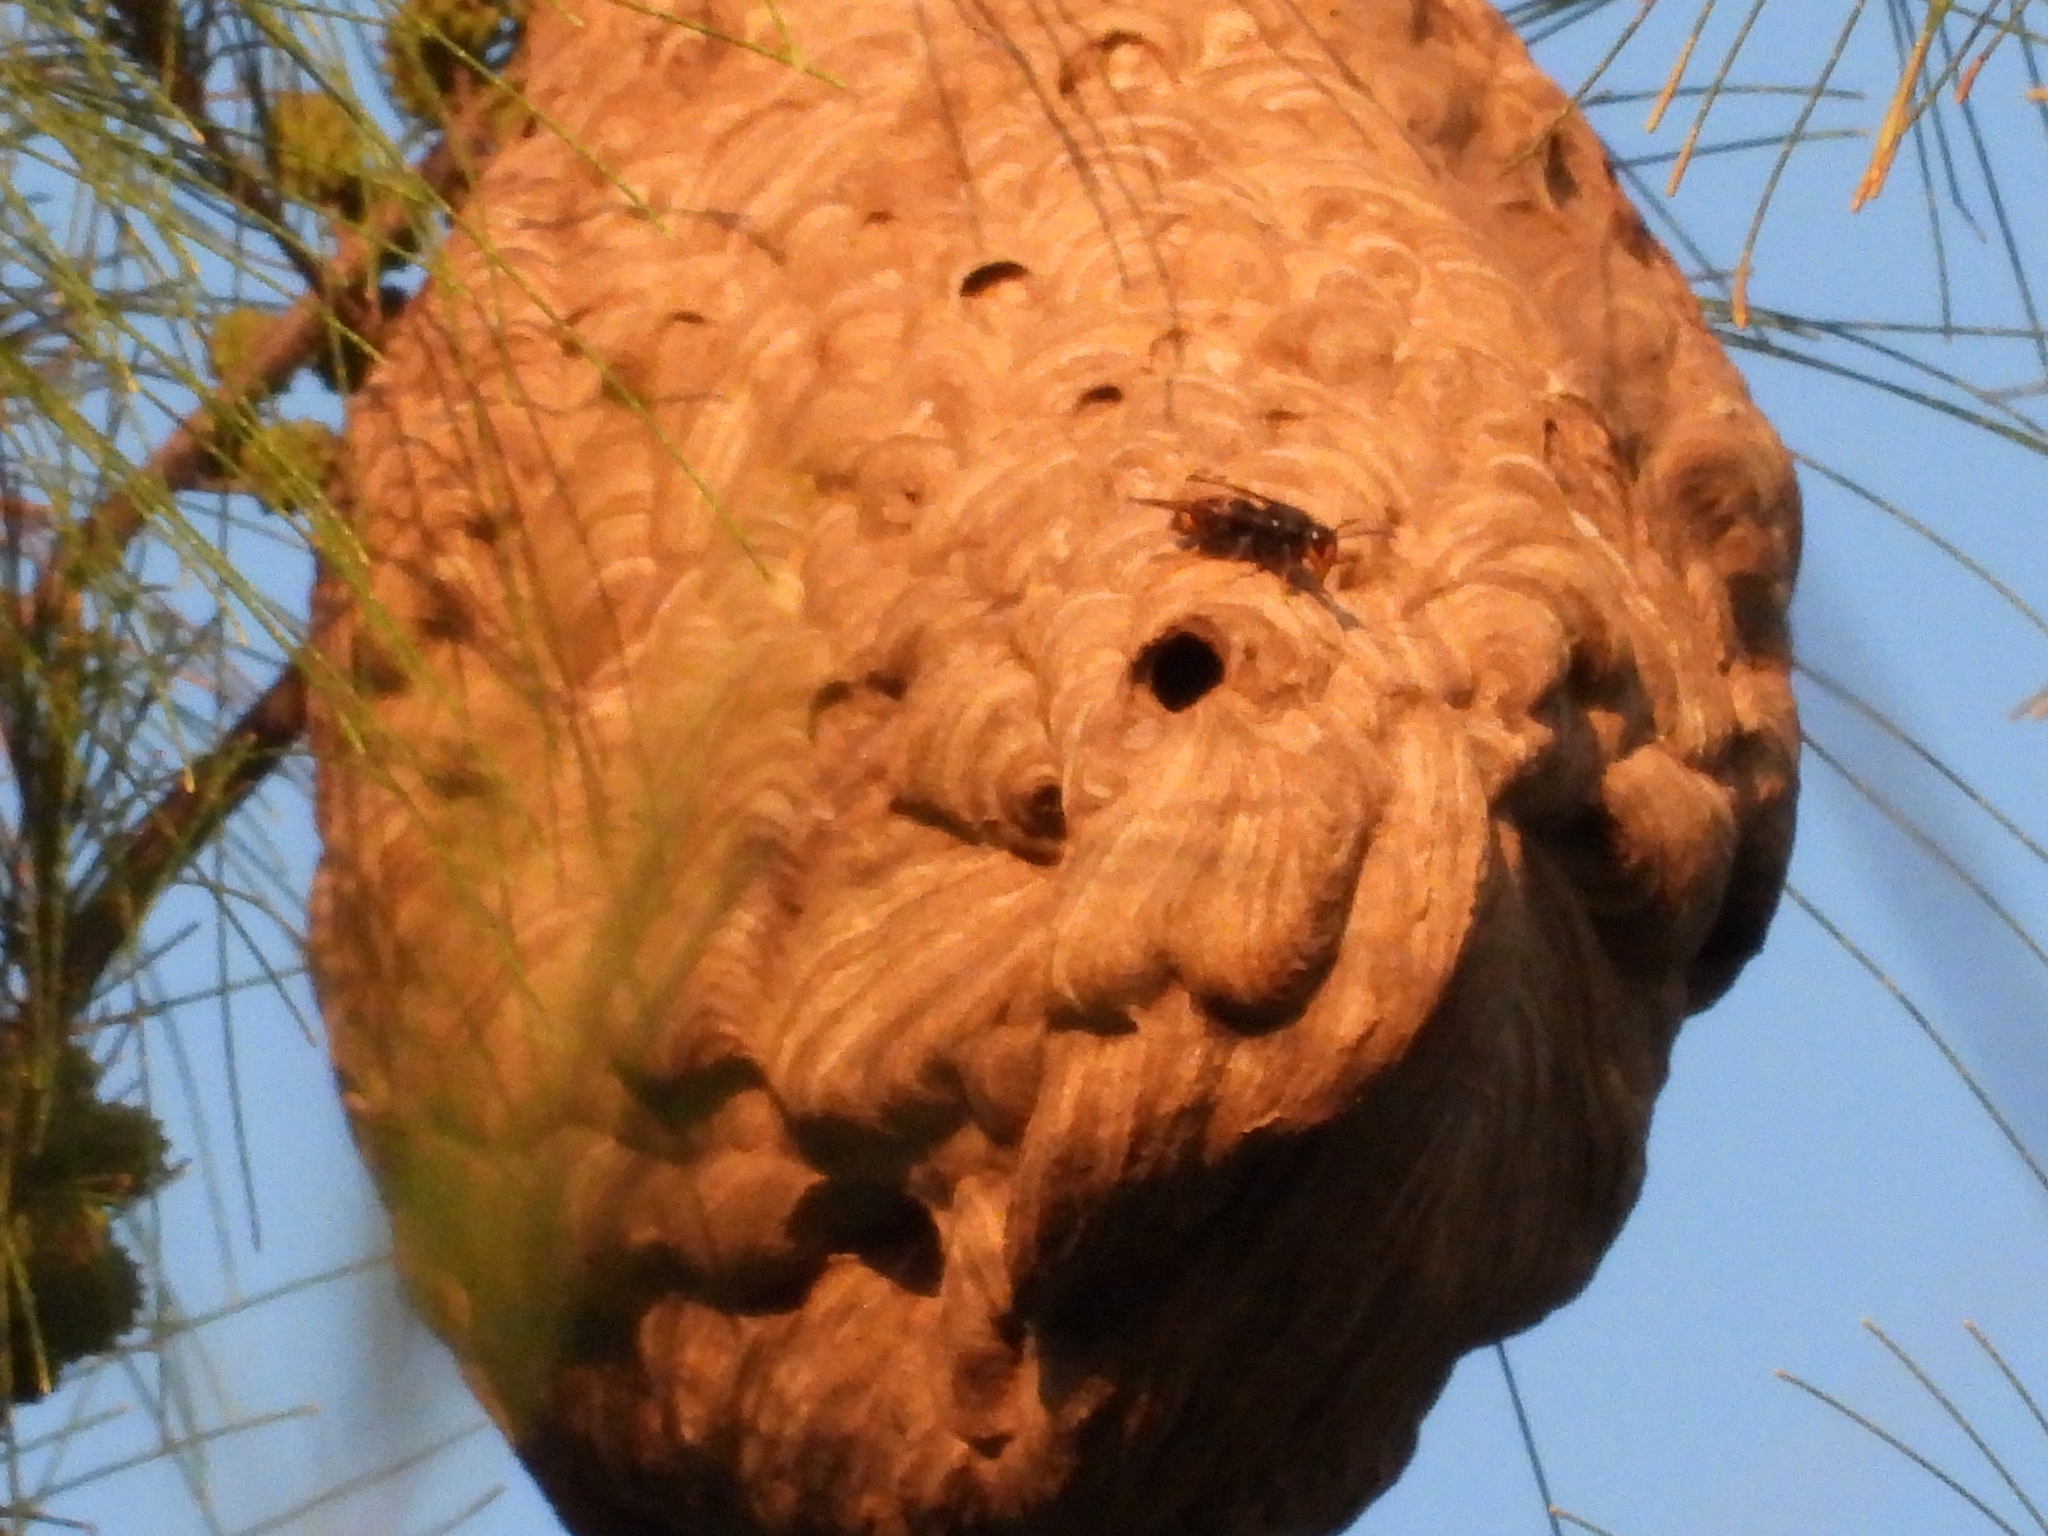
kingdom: Animalia
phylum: Arthropoda
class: Insecta
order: Hymenoptera
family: Vespidae
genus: Vespa
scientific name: Vespa velutina
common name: Asian hornet
